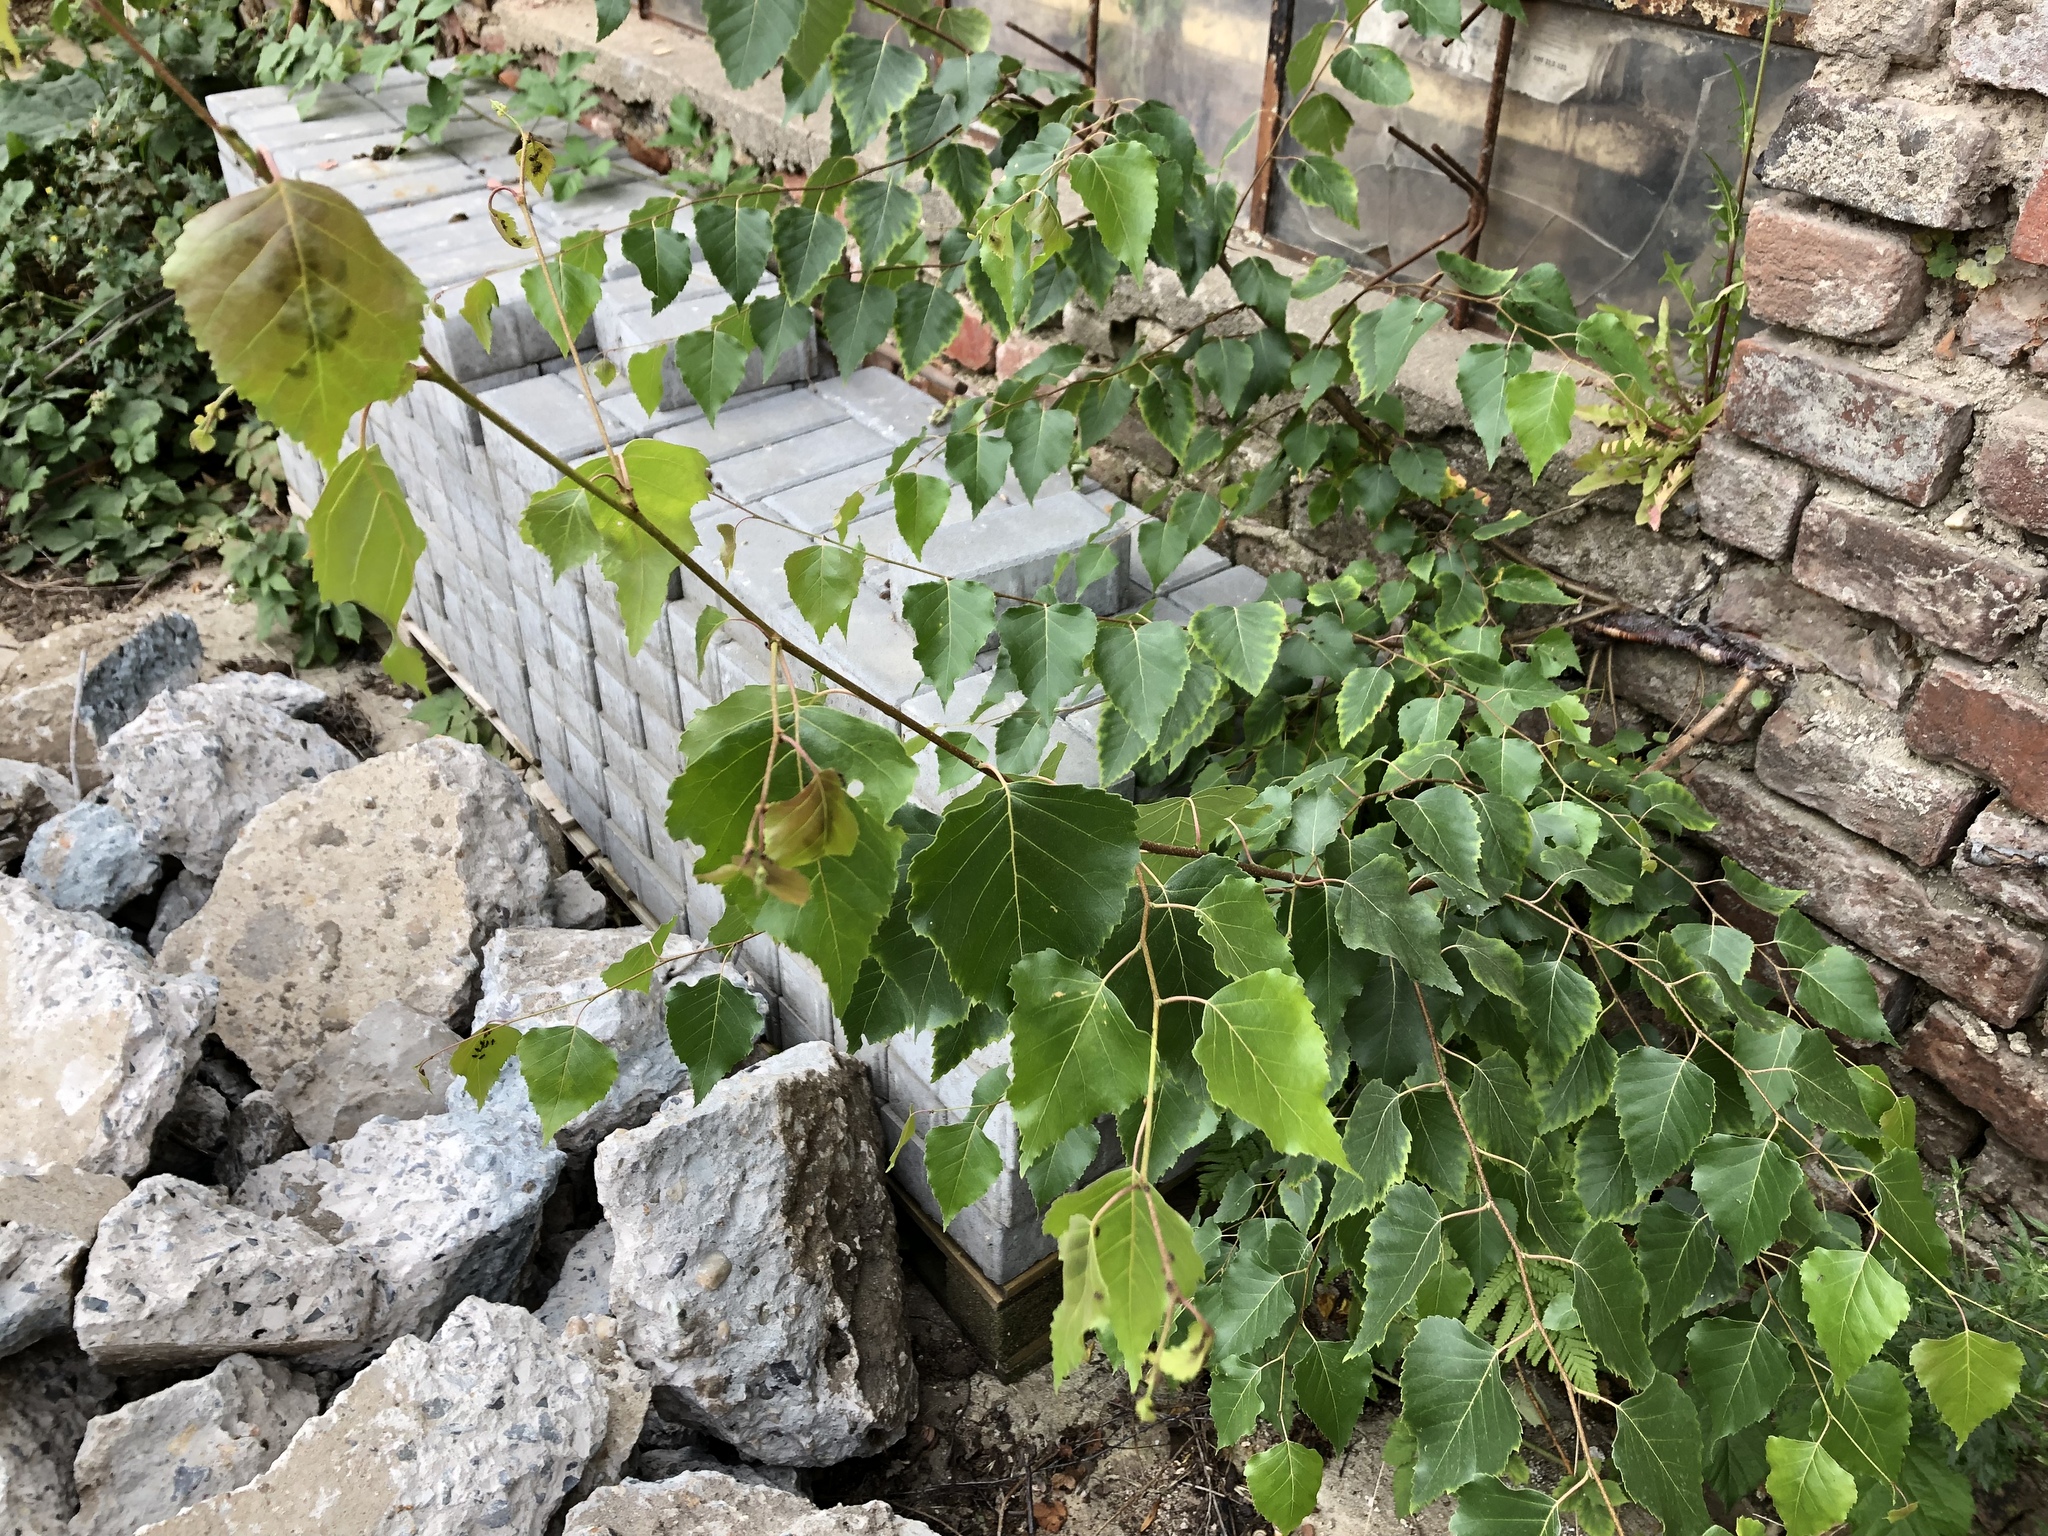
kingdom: Plantae
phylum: Tracheophyta
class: Magnoliopsida
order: Fagales
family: Betulaceae
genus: Betula
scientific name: Betula pendula
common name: Silver birch
